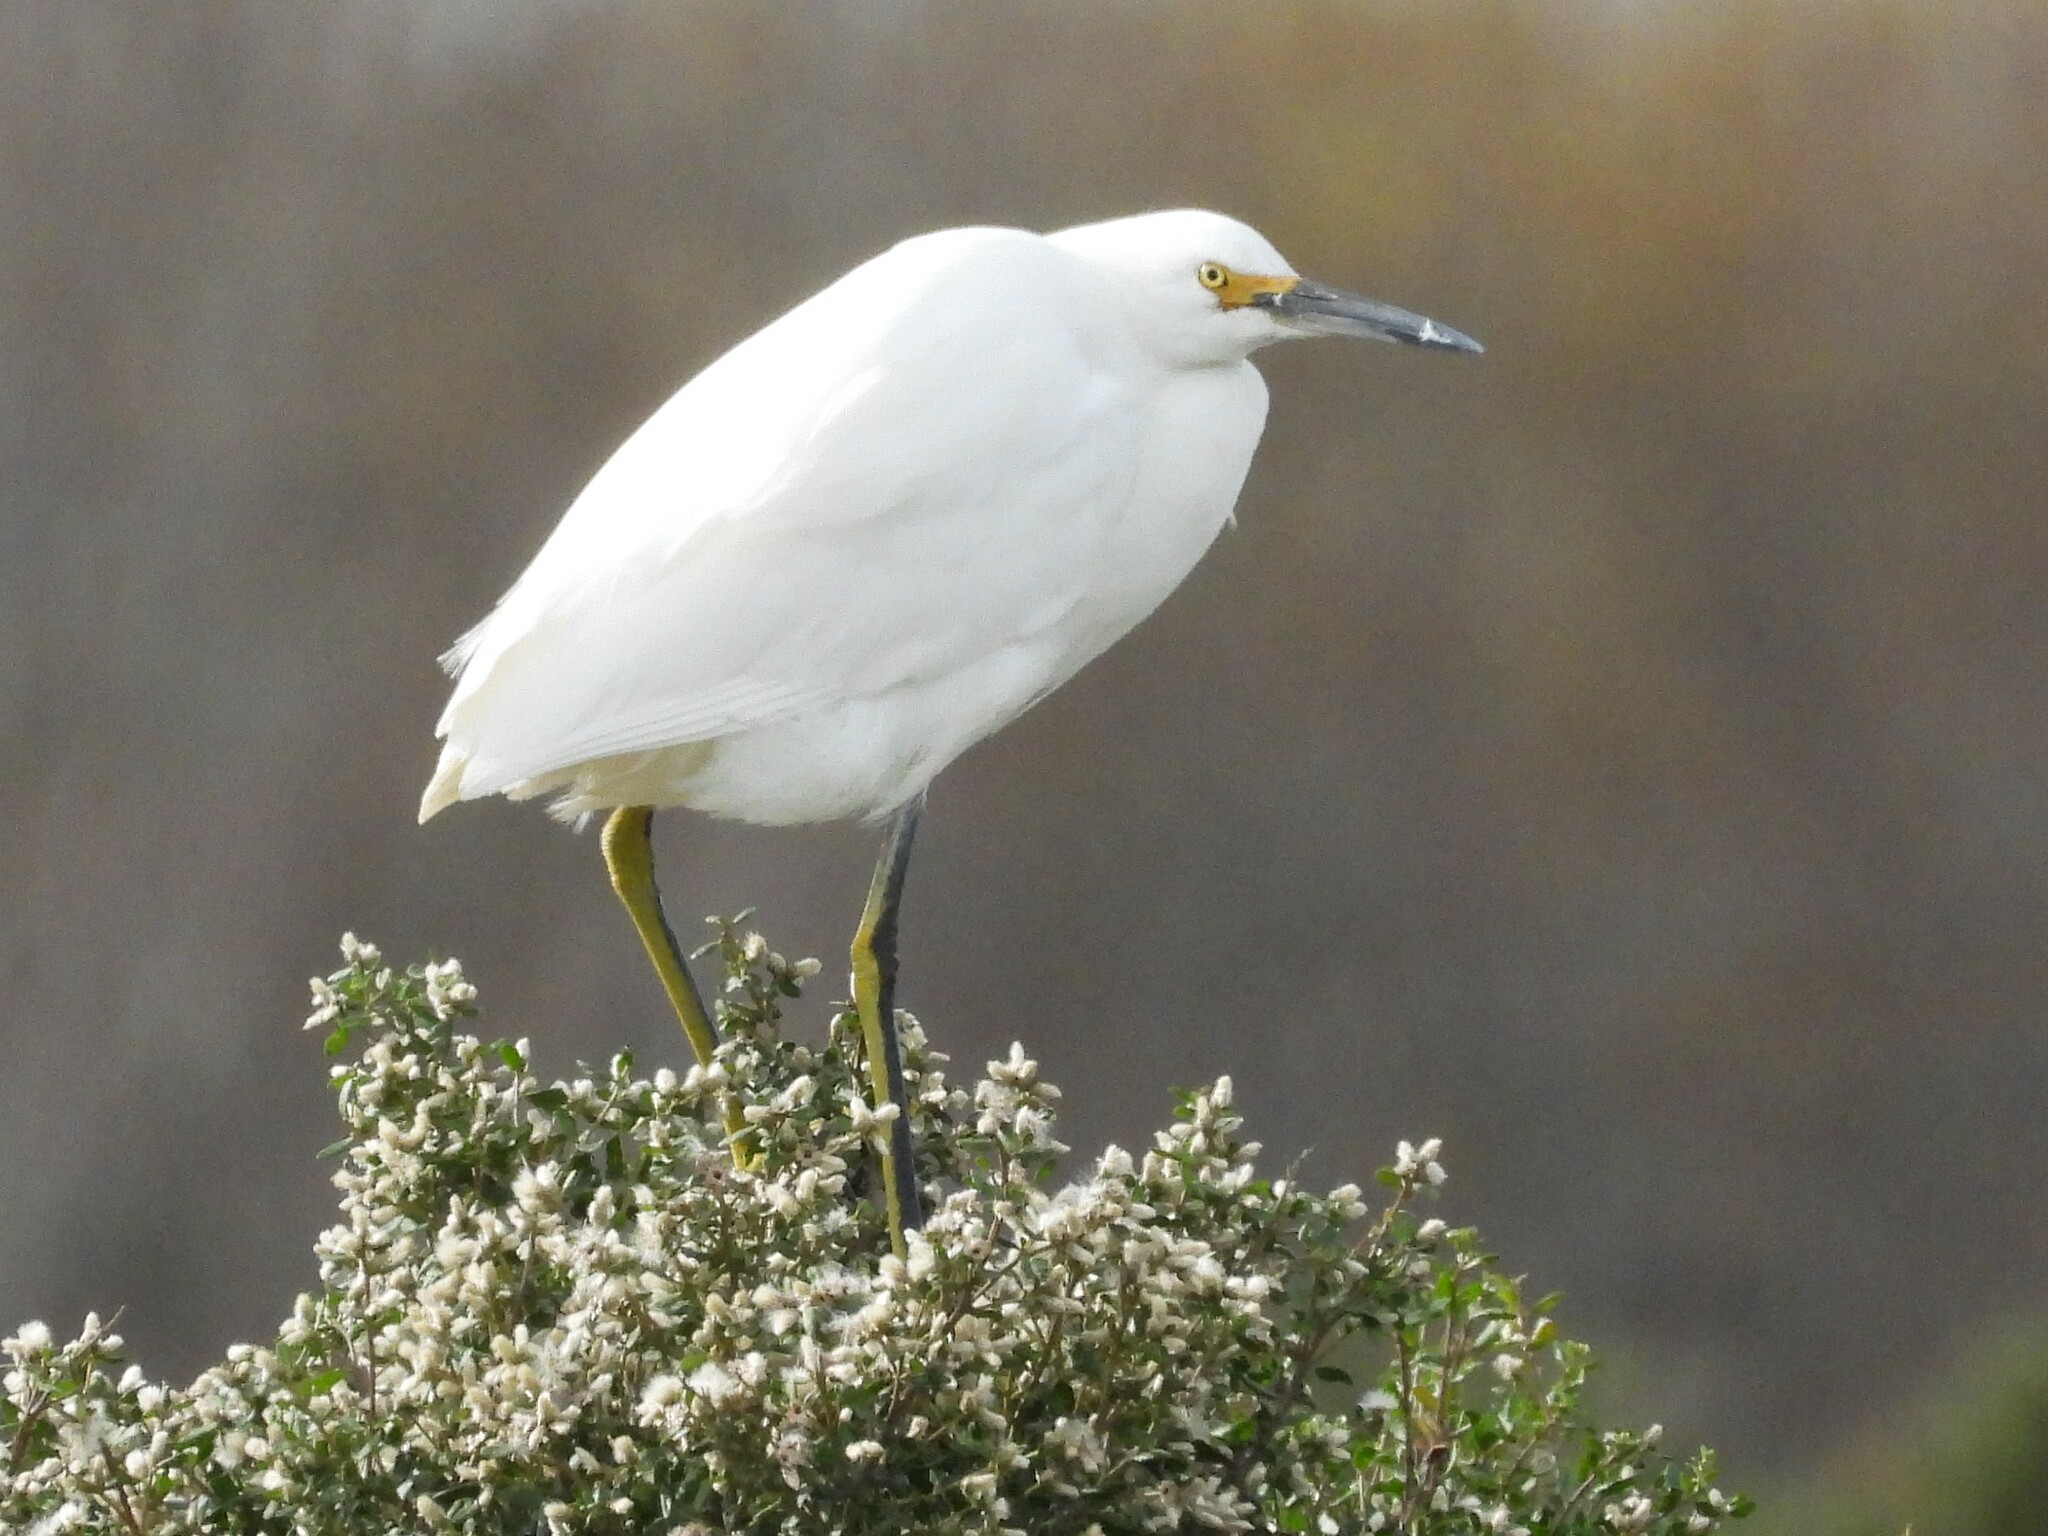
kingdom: Animalia
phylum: Chordata
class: Aves
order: Pelecaniformes
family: Ardeidae
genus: Egretta
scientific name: Egretta thula
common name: Snowy egret
